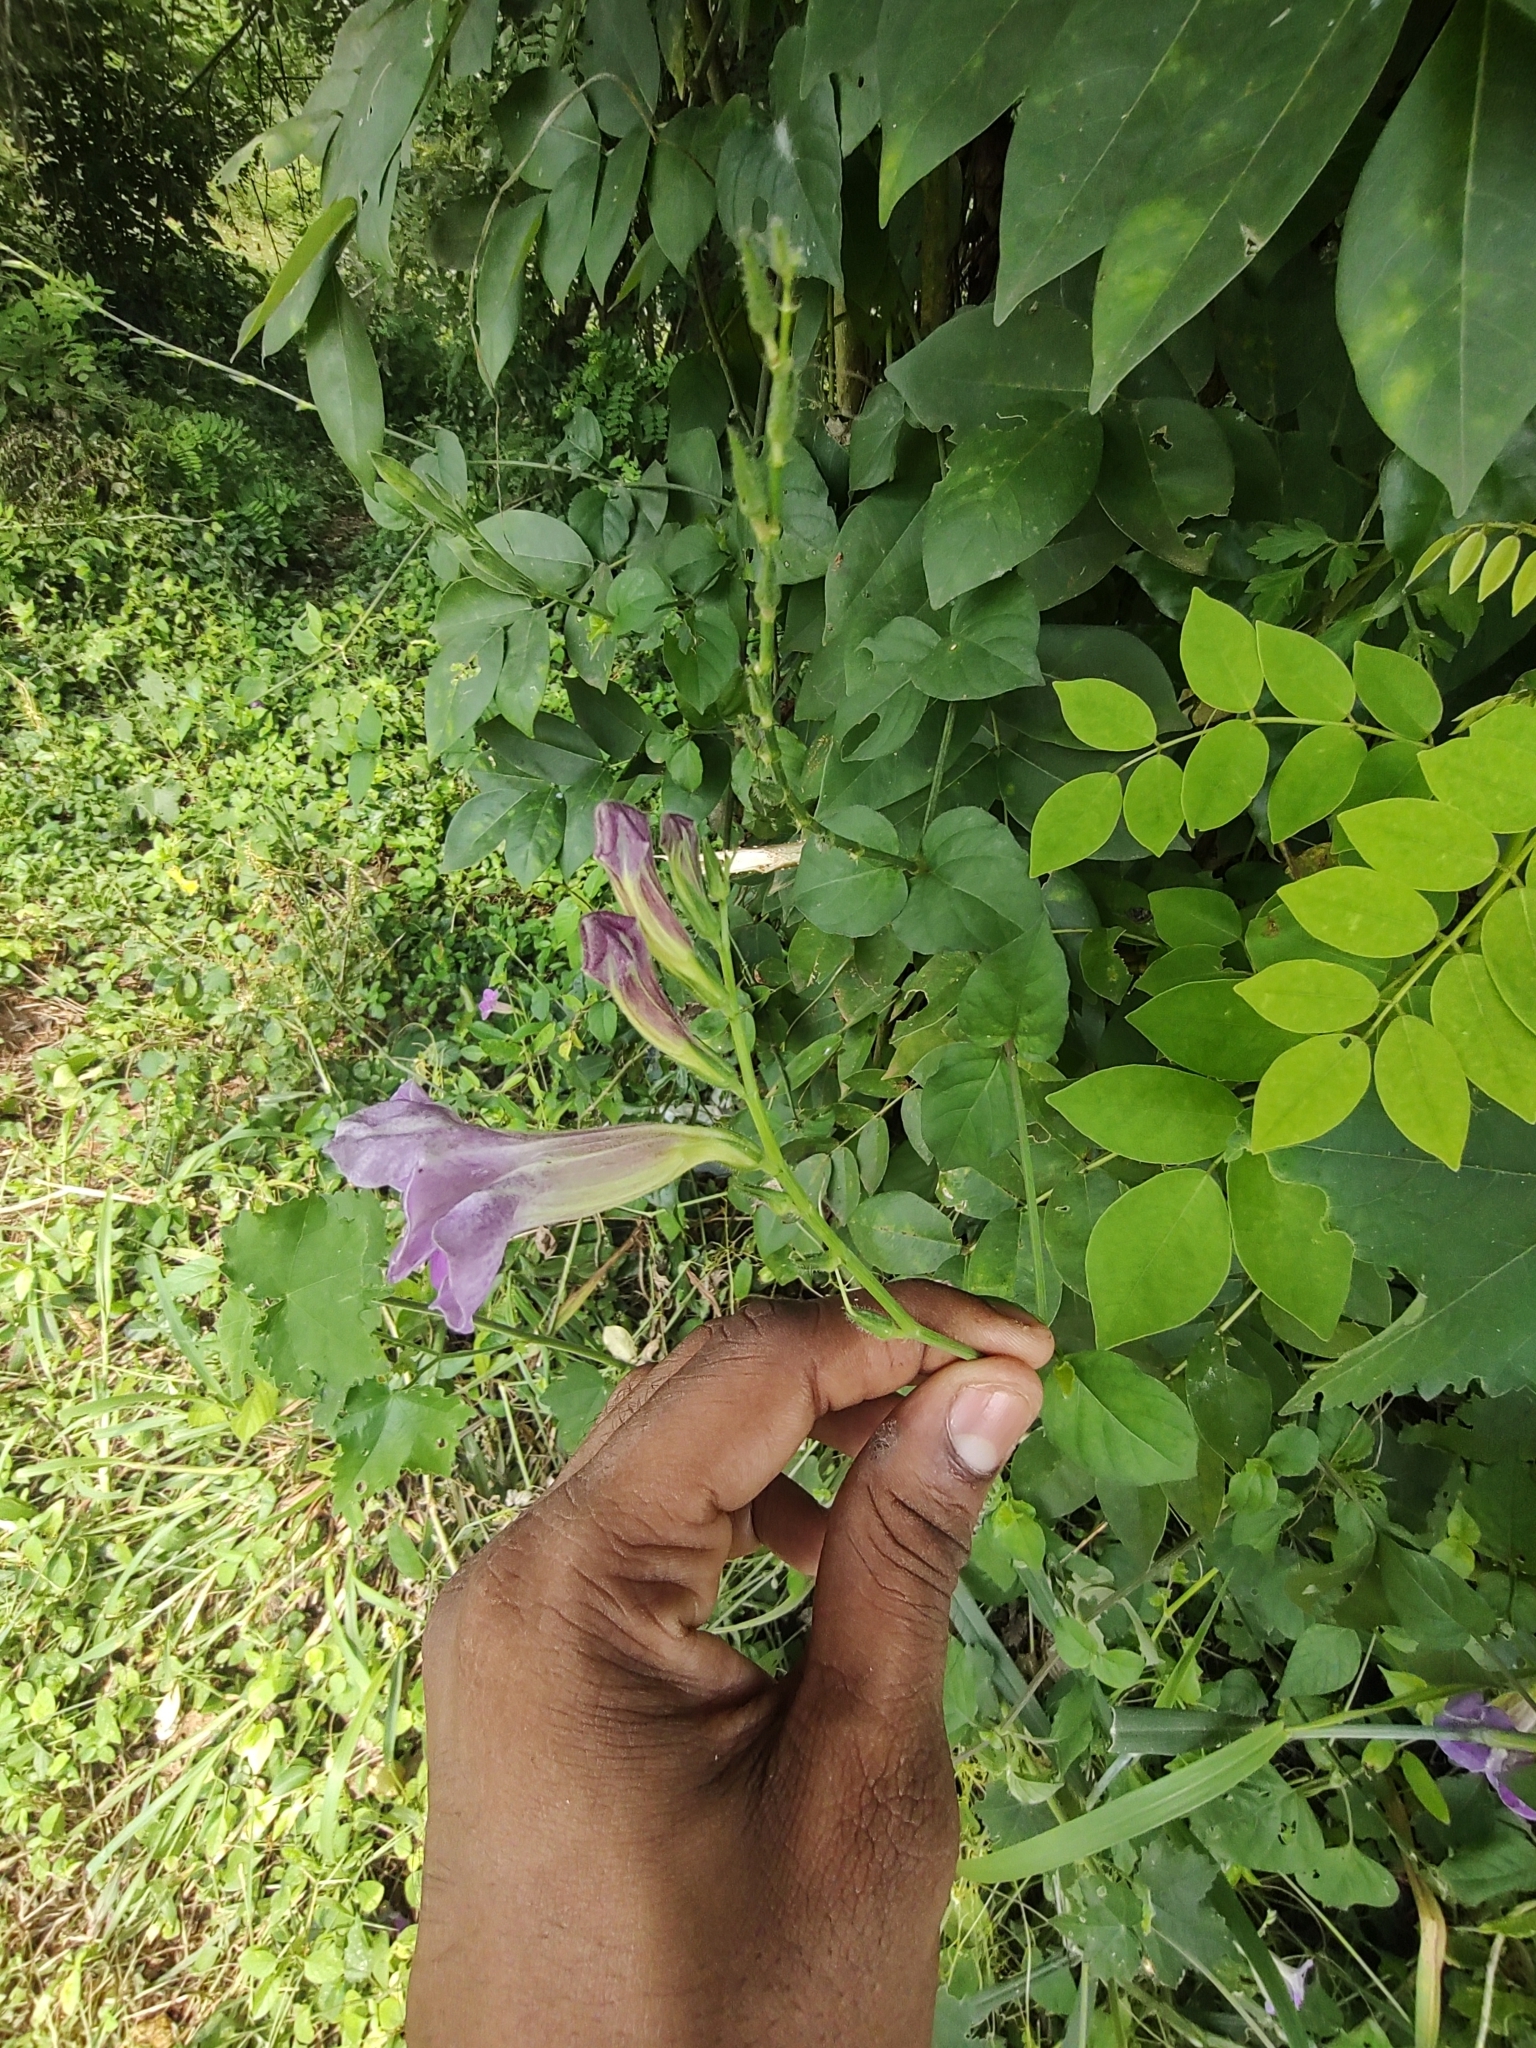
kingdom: Plantae
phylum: Tracheophyta
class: Magnoliopsida
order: Lamiales
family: Acanthaceae
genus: Asystasia
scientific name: Asystasia gangetica
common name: Chinese violet
